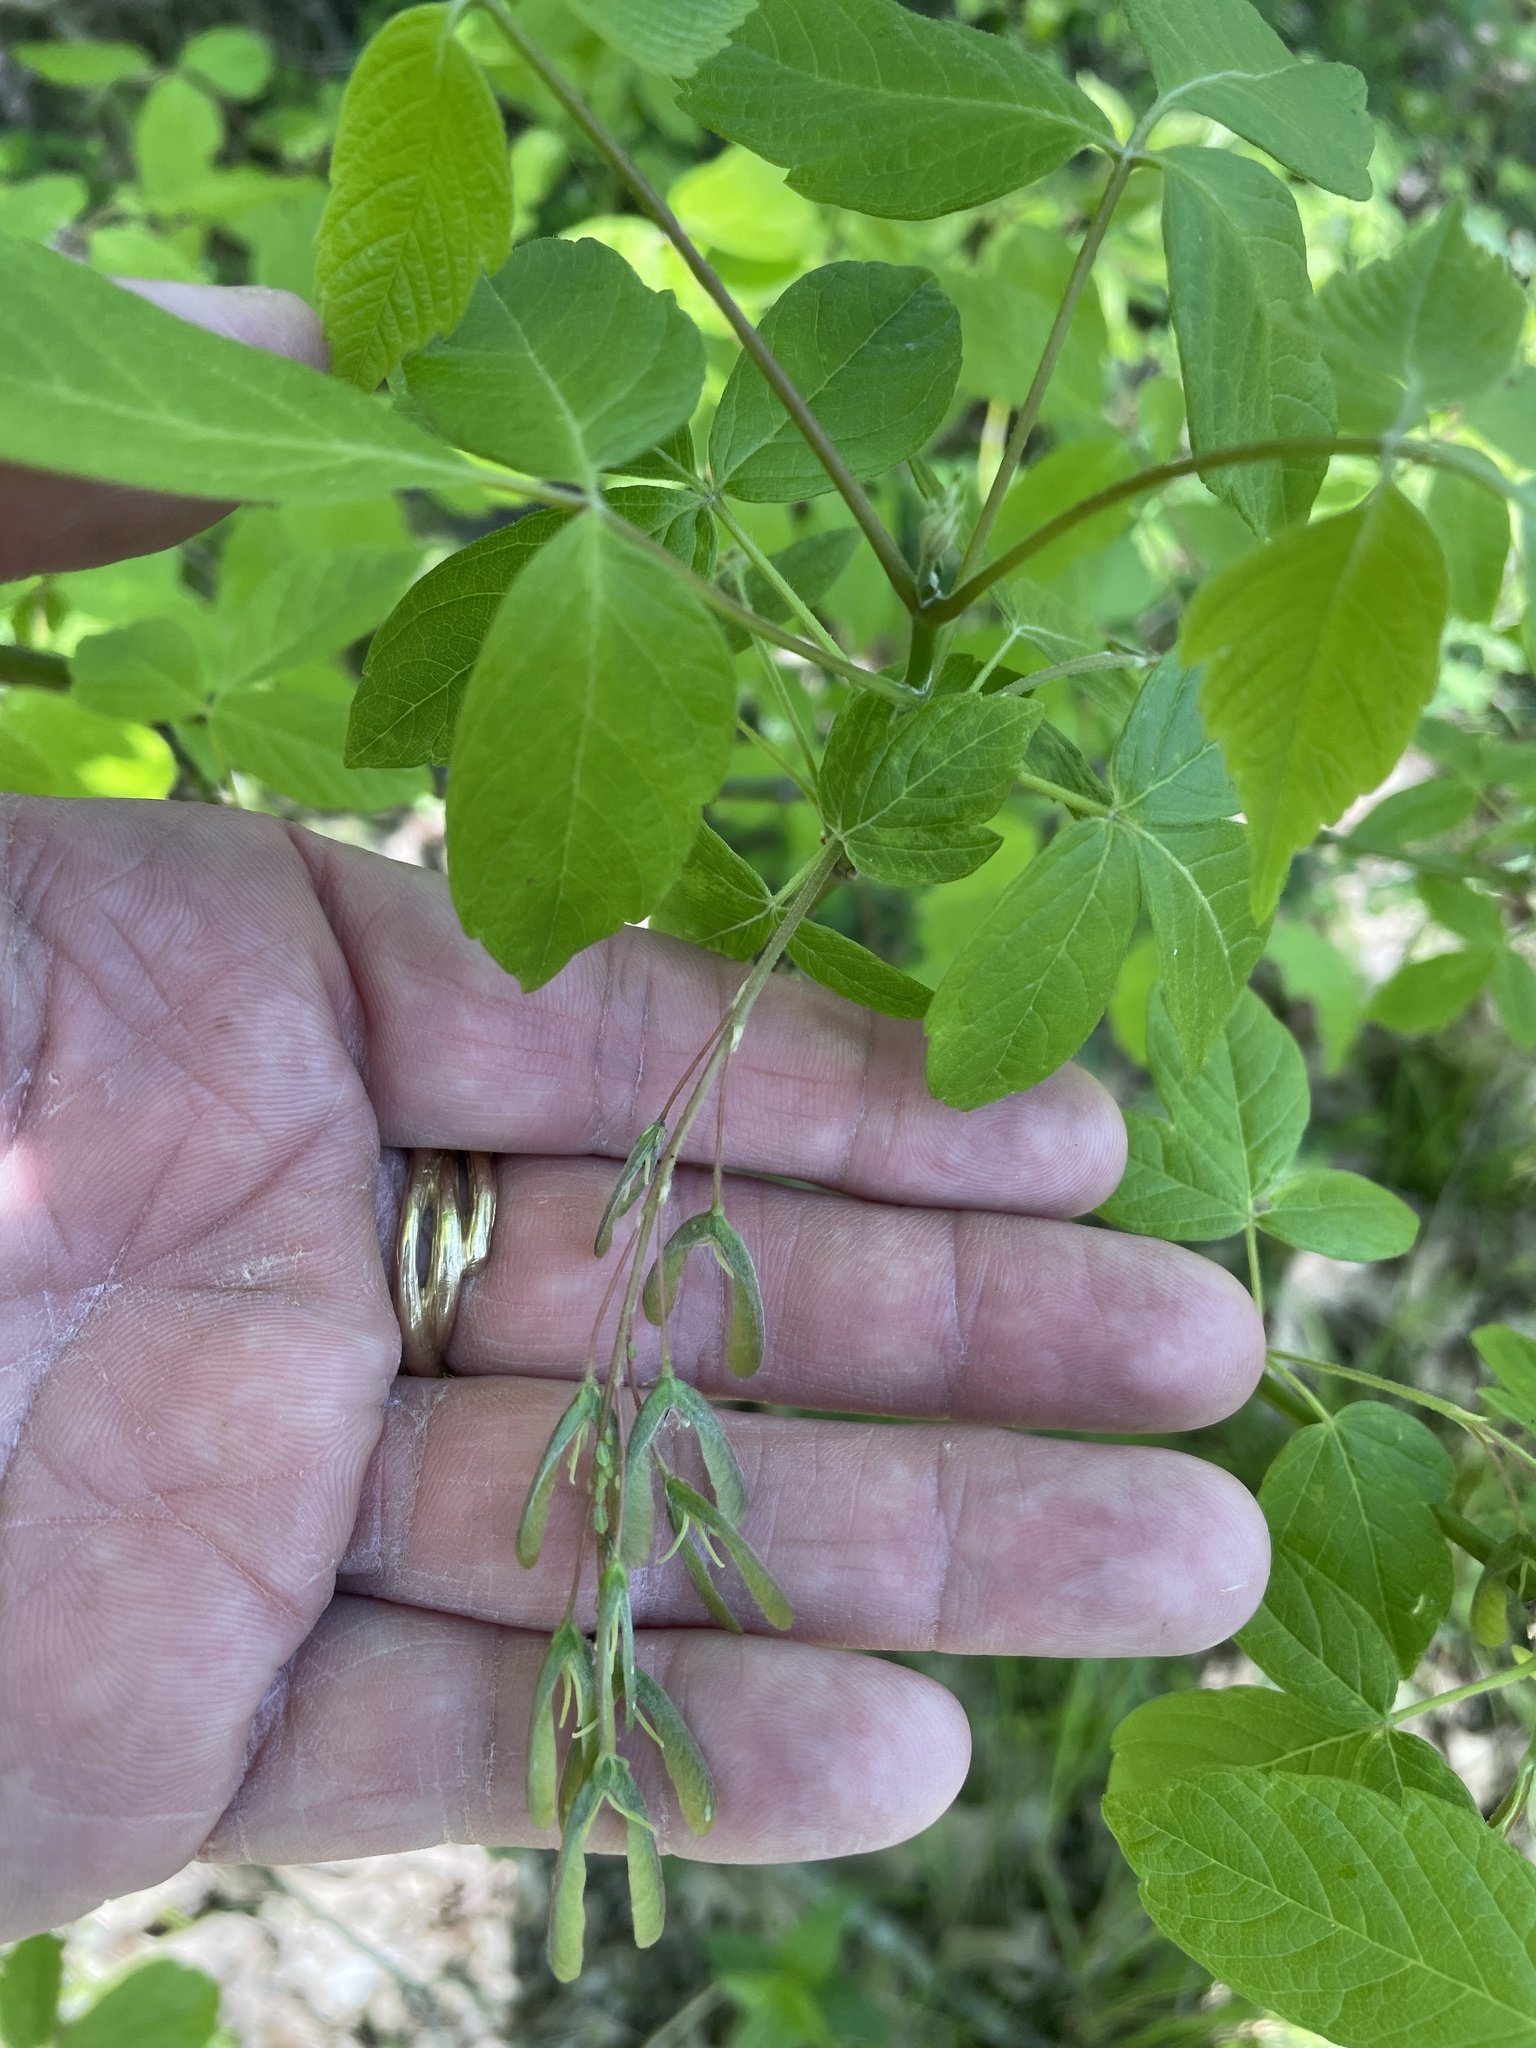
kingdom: Plantae
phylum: Tracheophyta
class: Magnoliopsida
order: Sapindales
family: Sapindaceae
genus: Acer
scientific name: Acer negundo
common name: Ashleaf maple
